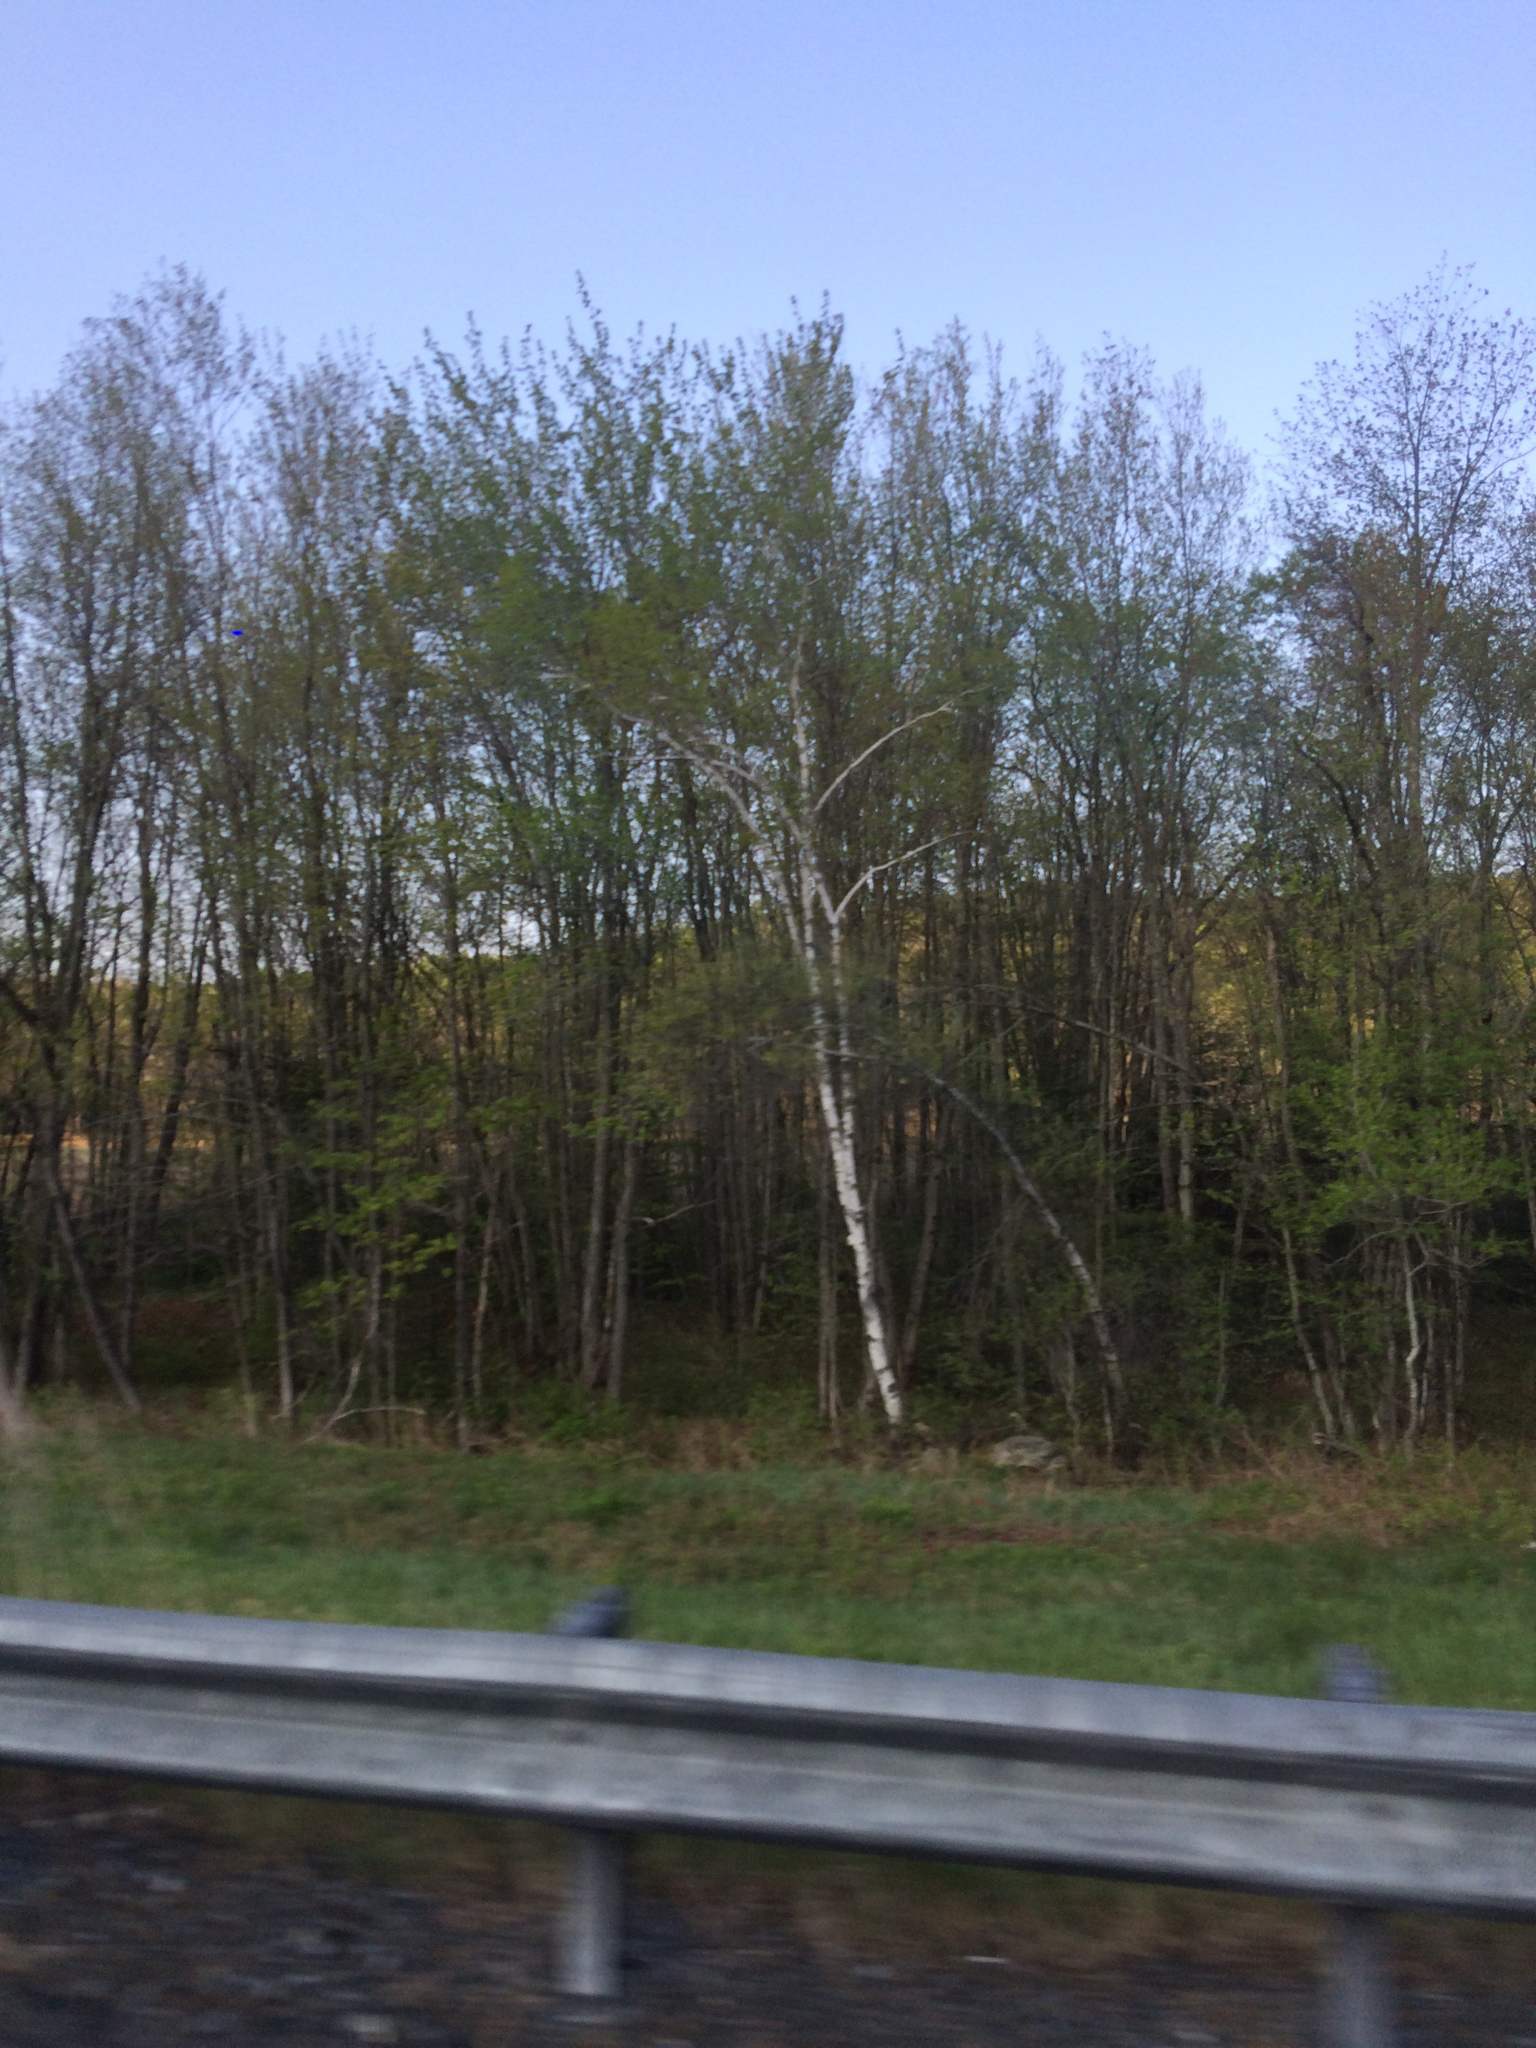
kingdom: Plantae
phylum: Tracheophyta
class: Magnoliopsida
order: Fagales
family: Betulaceae
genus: Betula
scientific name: Betula papyrifera
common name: Paper birch
